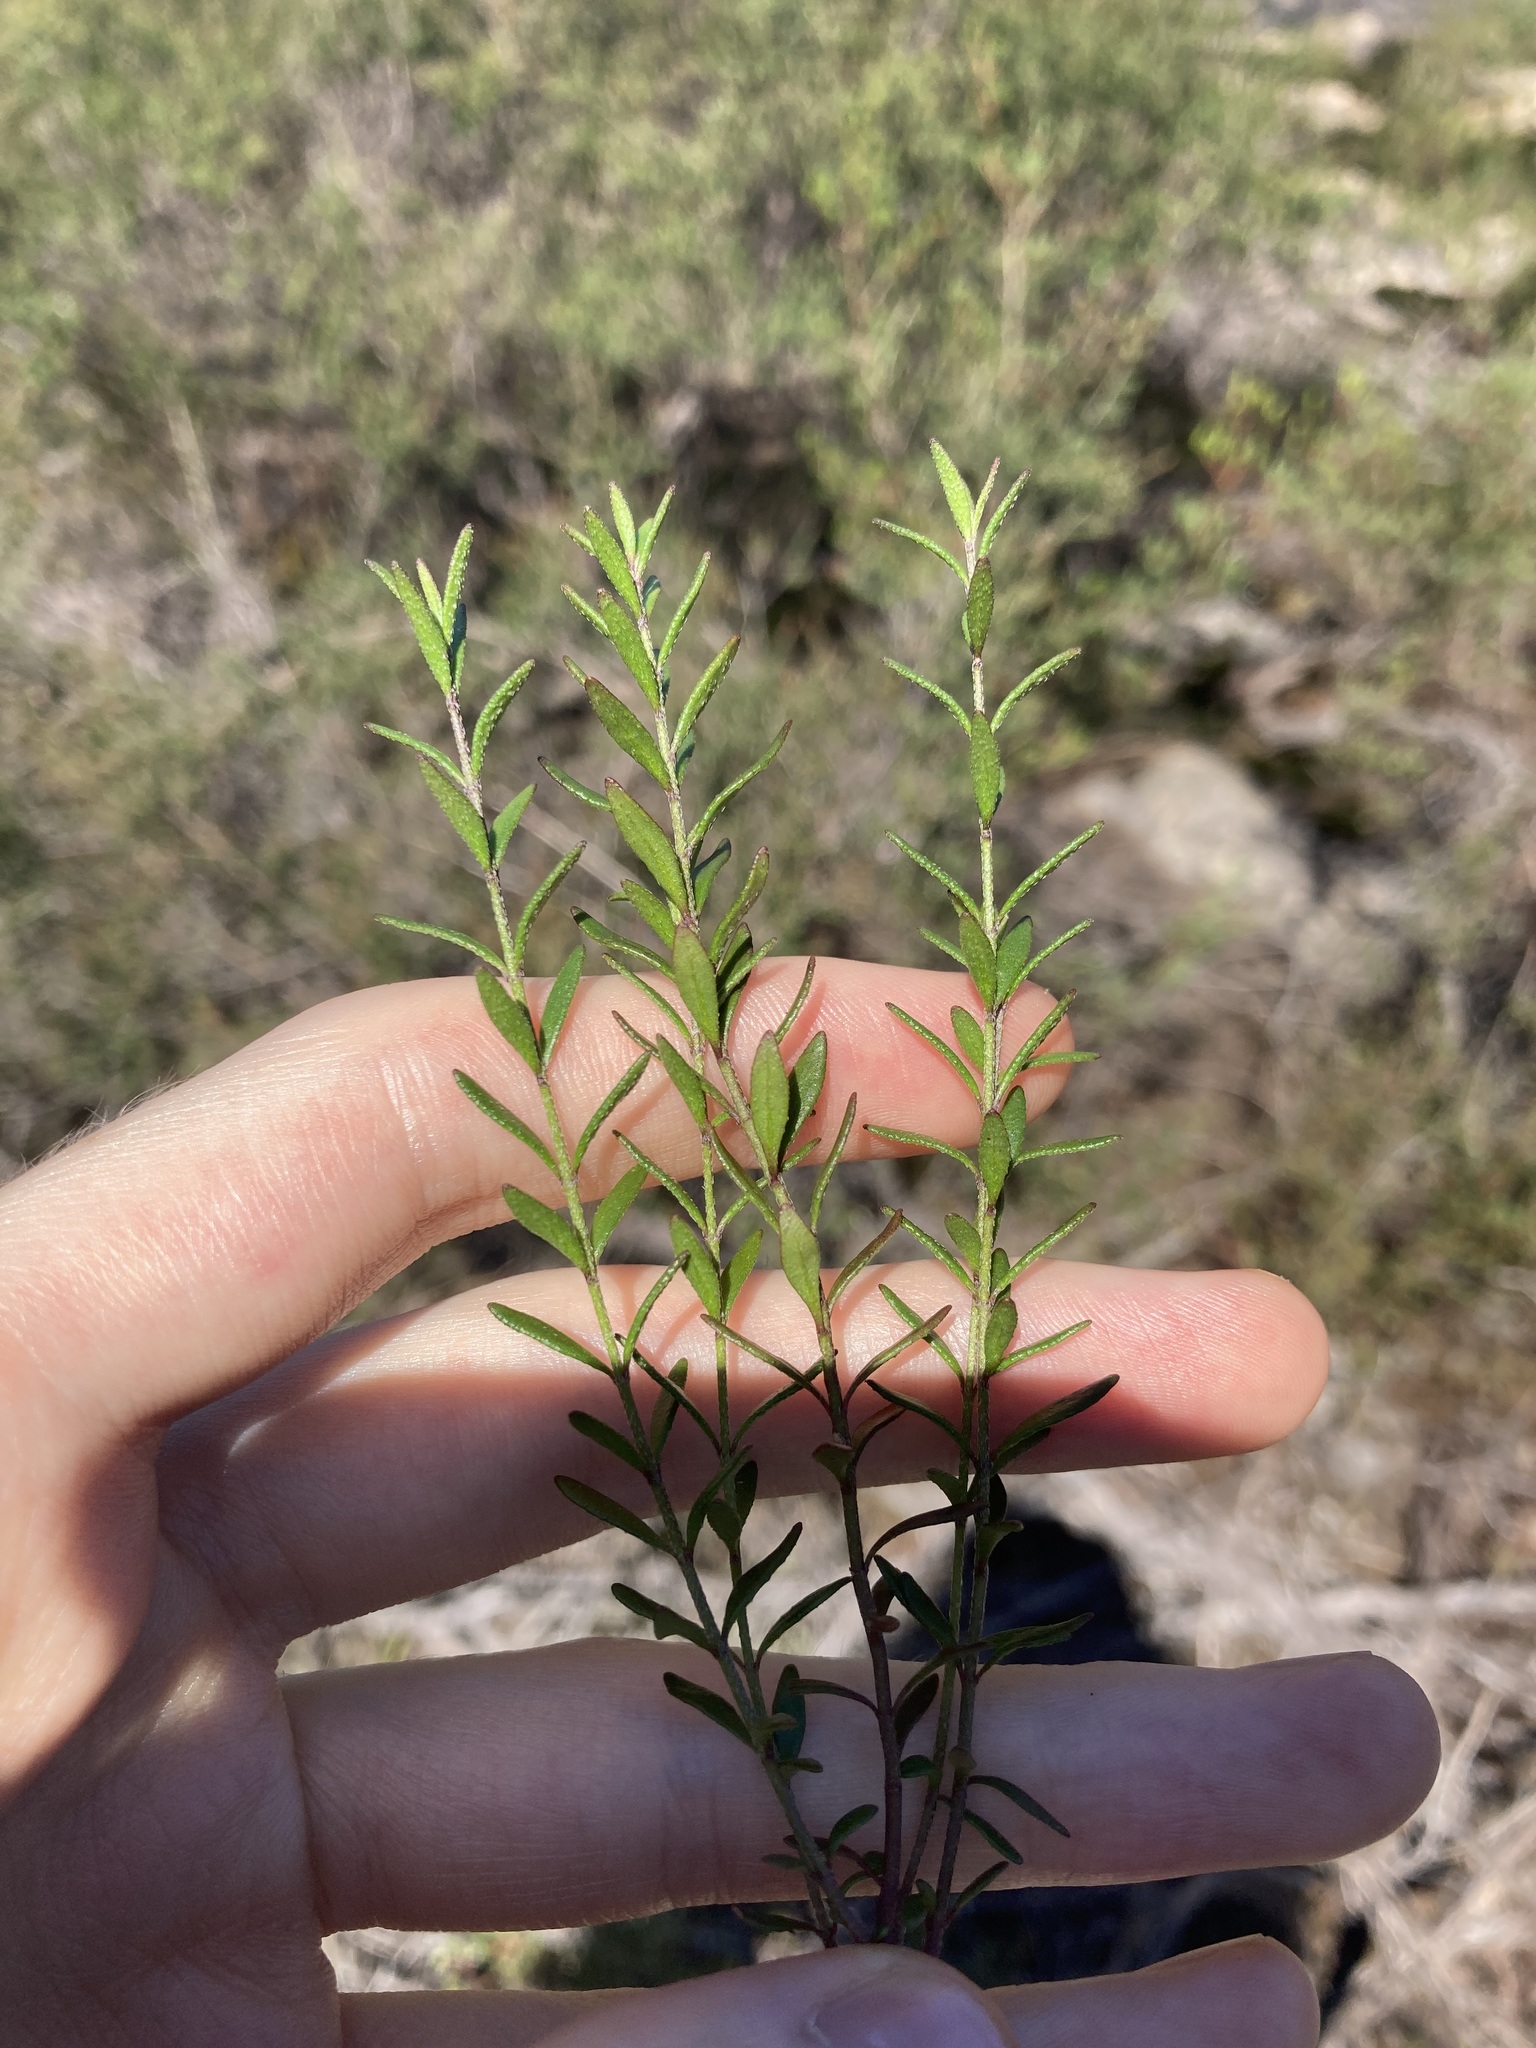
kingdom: Plantae
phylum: Tracheophyta
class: Magnoliopsida
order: Lamiales
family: Lamiaceae
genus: Prostanthera
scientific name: Prostanthera saxicola
